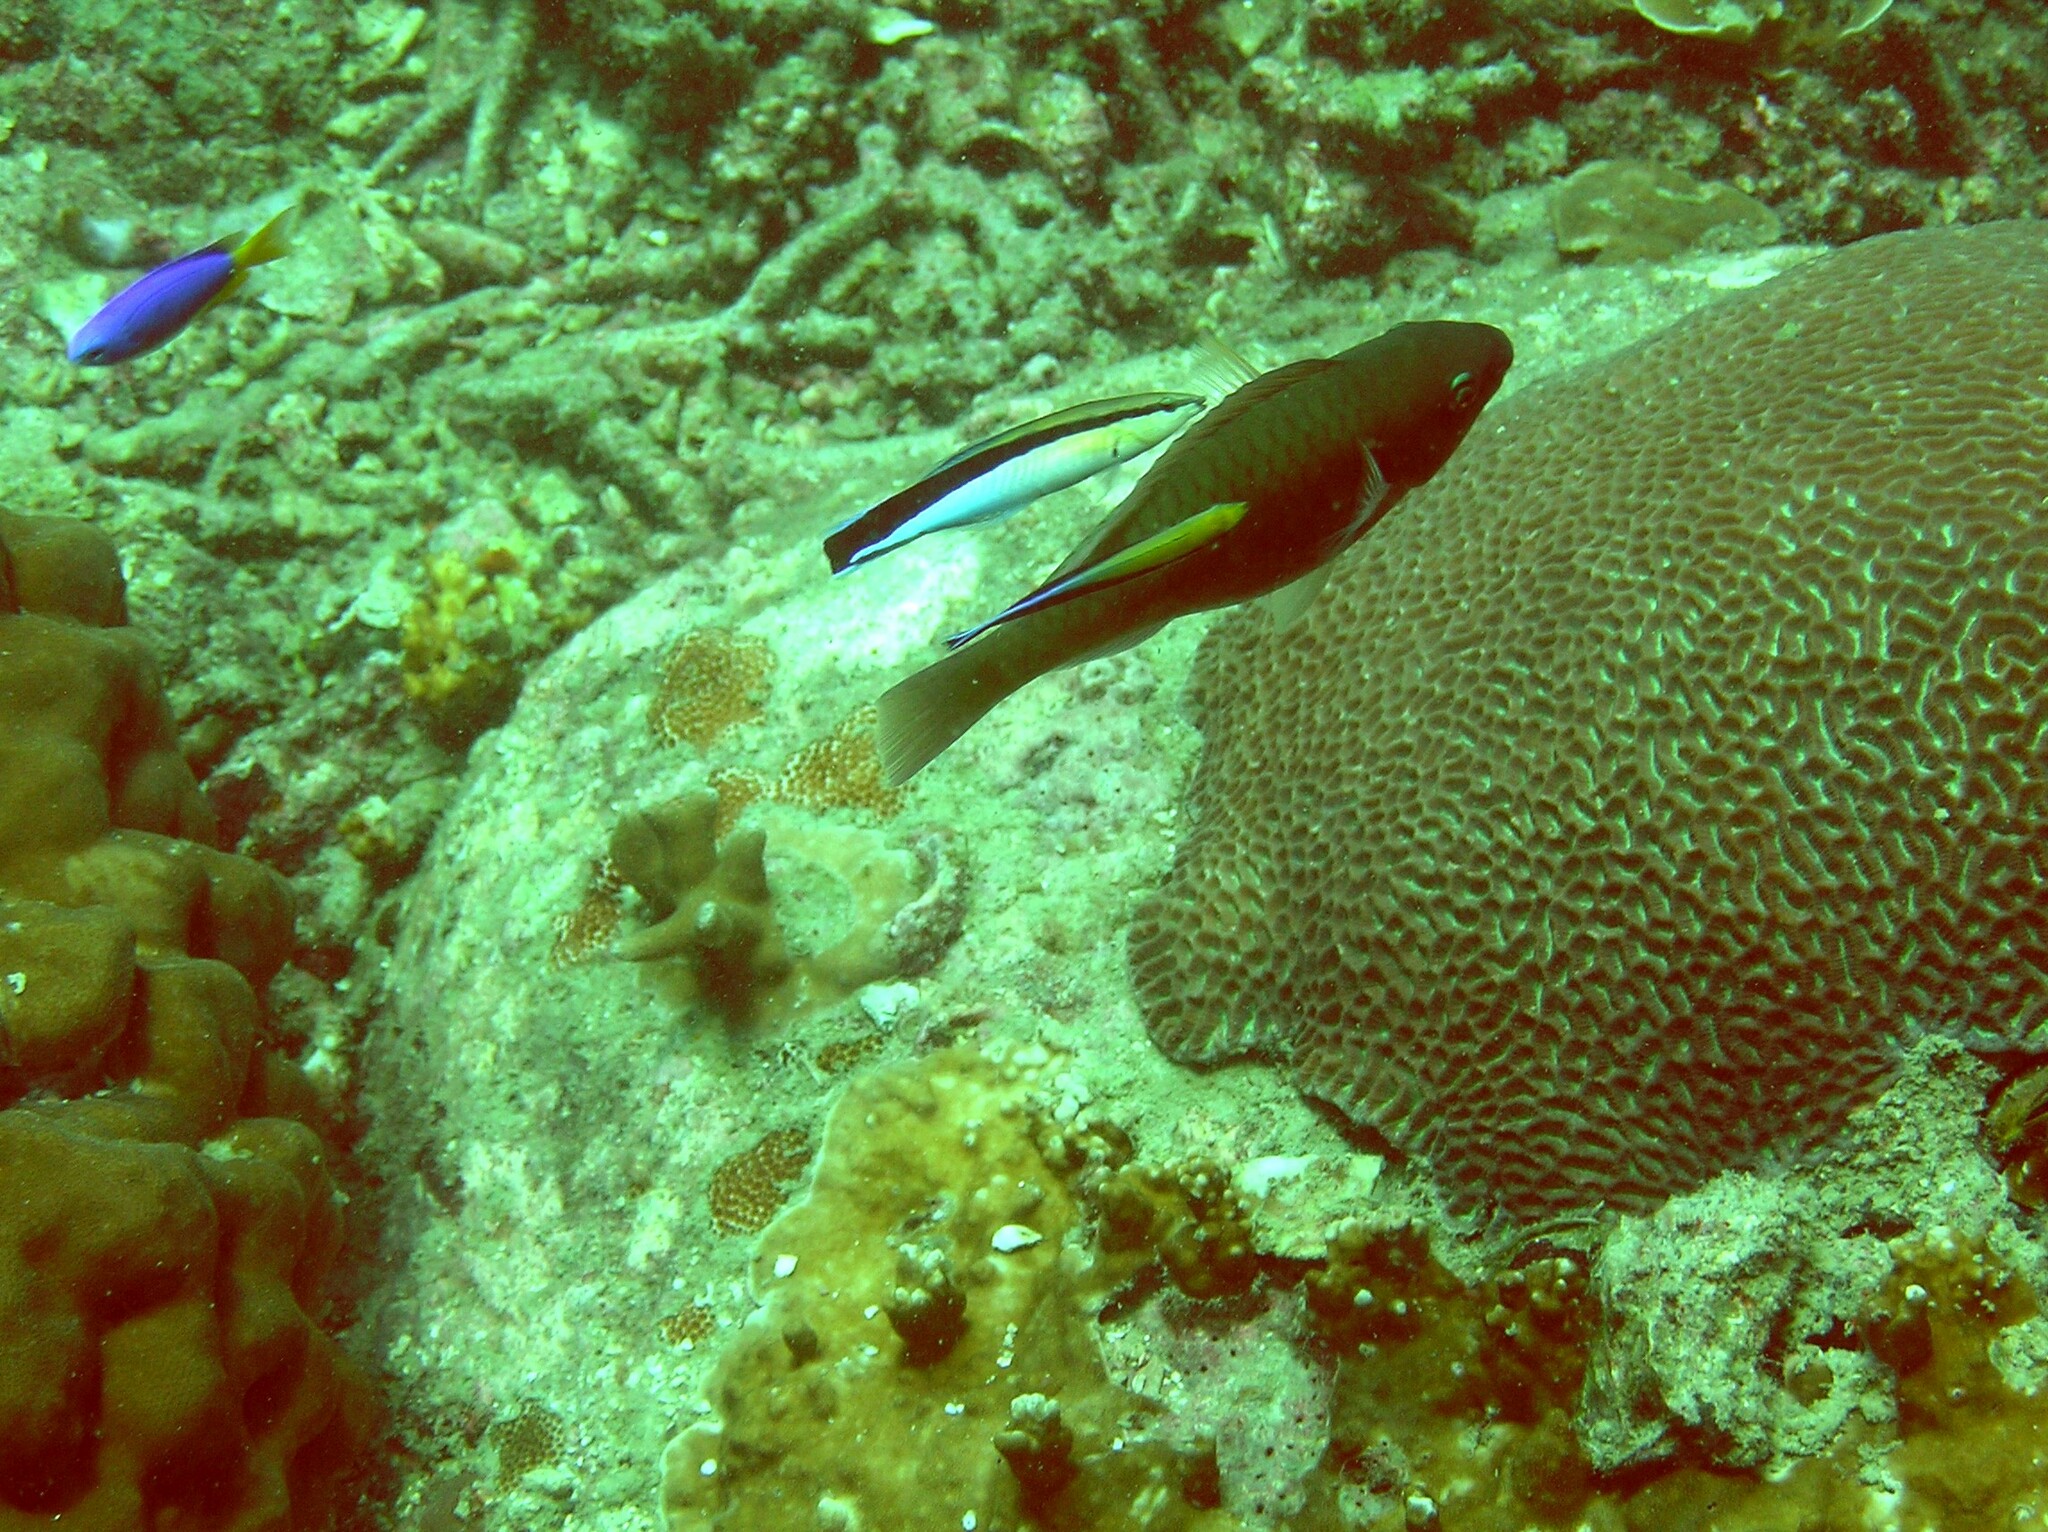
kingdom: Animalia
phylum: Chordata
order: Perciformes
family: Labridae
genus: Labroides
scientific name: Labroides dimidiatus
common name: Blue diesel wrasse
